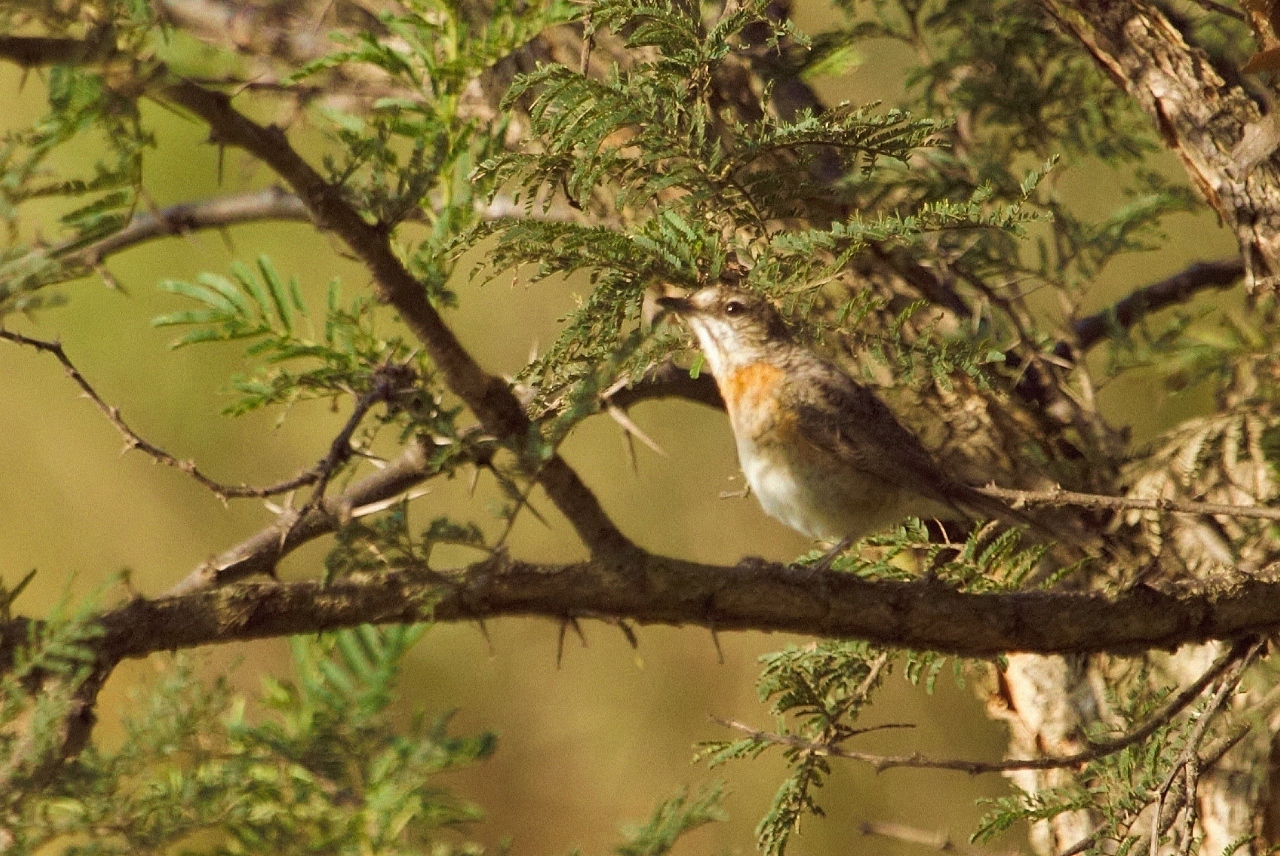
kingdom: Animalia
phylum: Chordata
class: Aves
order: Passeriformes
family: Muscicapidae
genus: Monticola
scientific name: Monticola angolensis
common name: Miombo rock thrush
